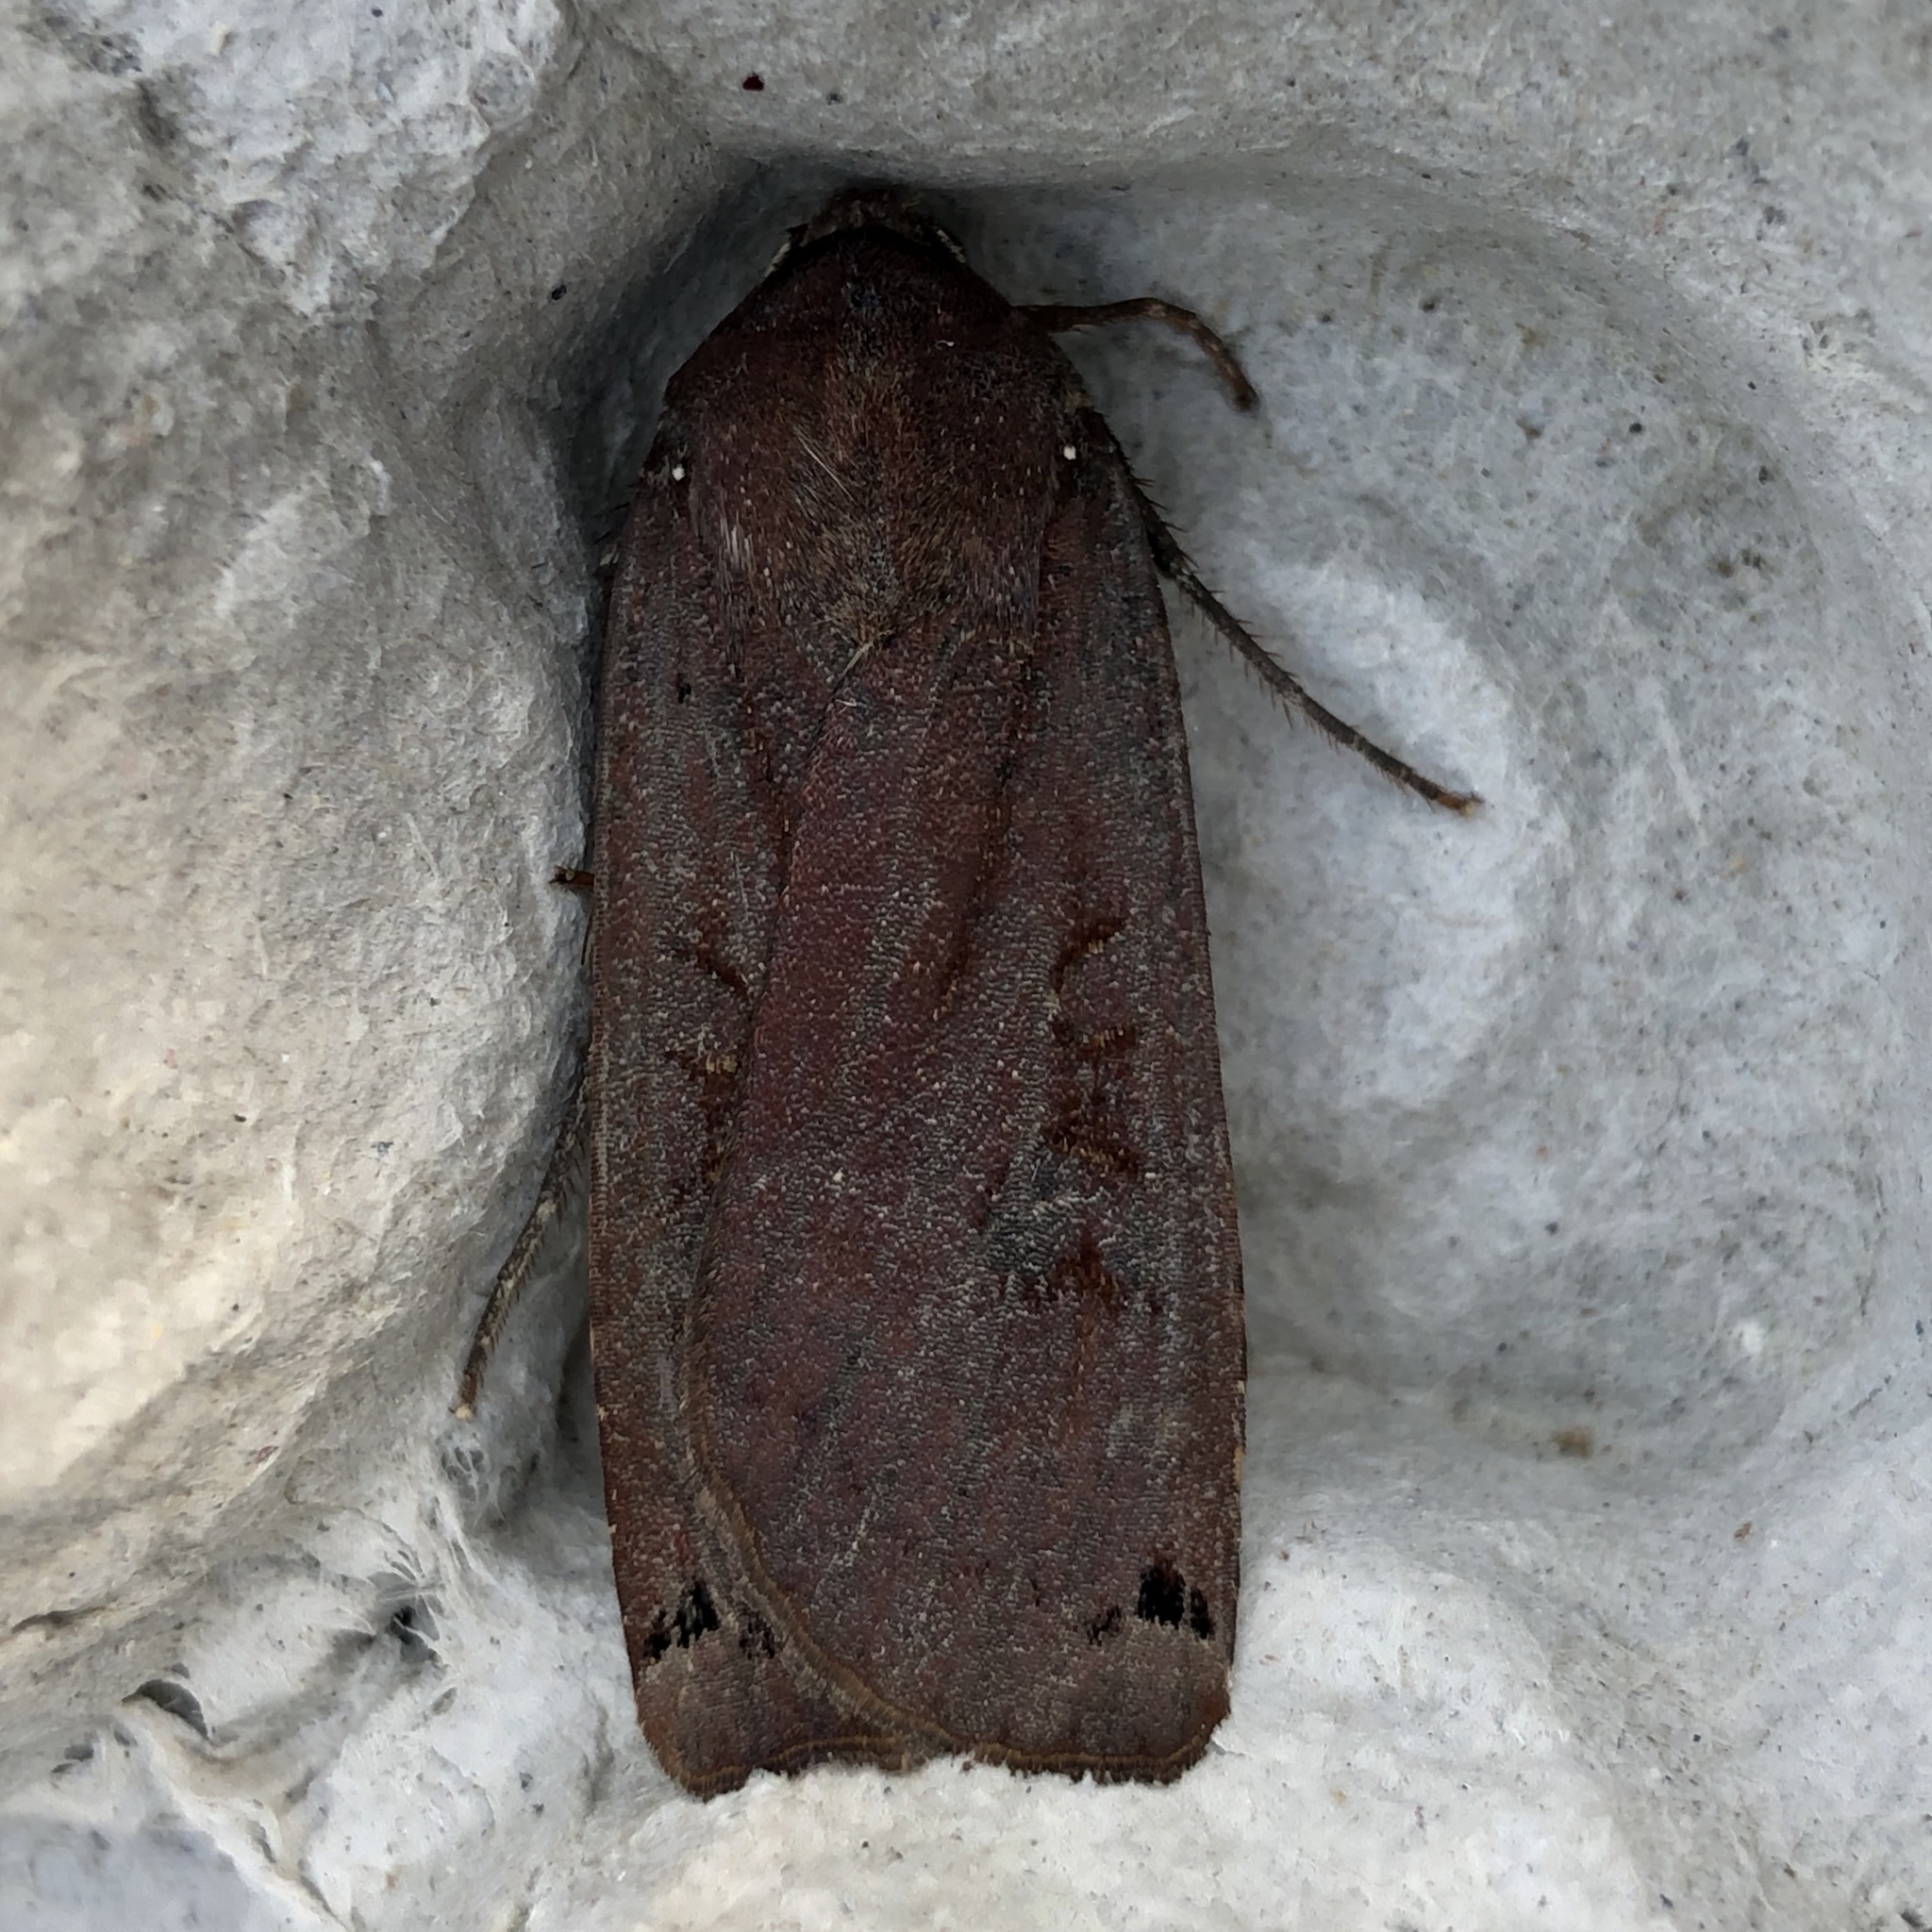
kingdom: Animalia
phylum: Arthropoda
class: Insecta
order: Lepidoptera
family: Noctuidae
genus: Noctua
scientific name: Noctua pronuba
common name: Large yellow underwing
